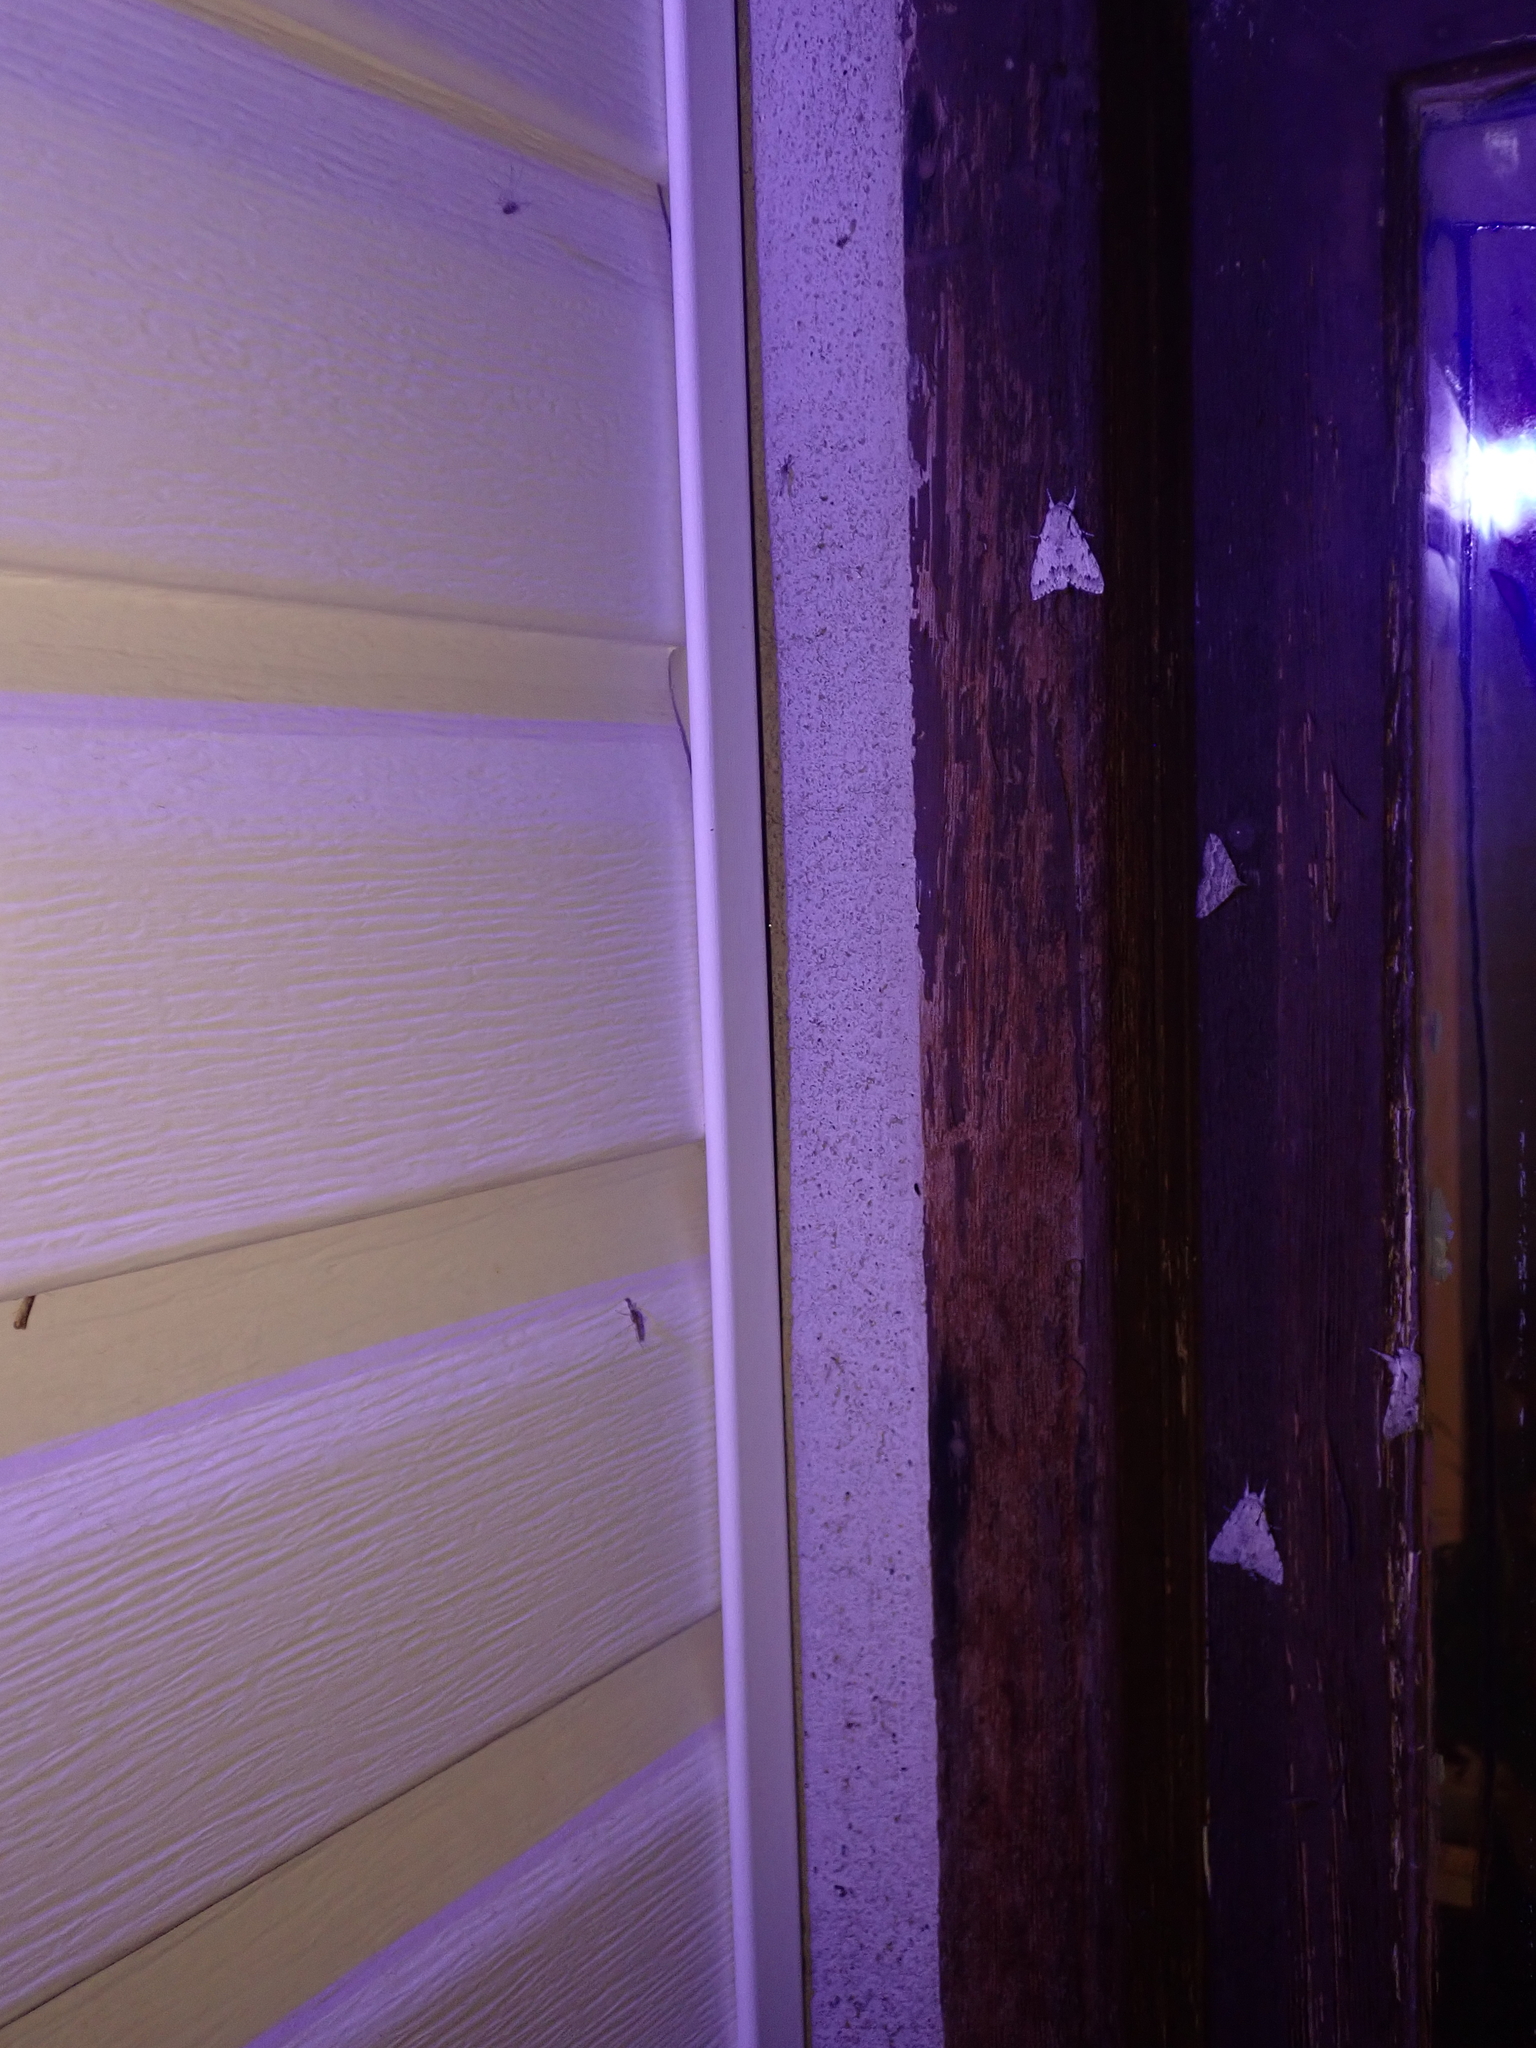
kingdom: Animalia
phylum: Arthropoda
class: Insecta
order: Lepidoptera
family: Noctuidae
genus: Acronicta
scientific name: Acronicta lepusculina
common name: Cottonwood dagger
